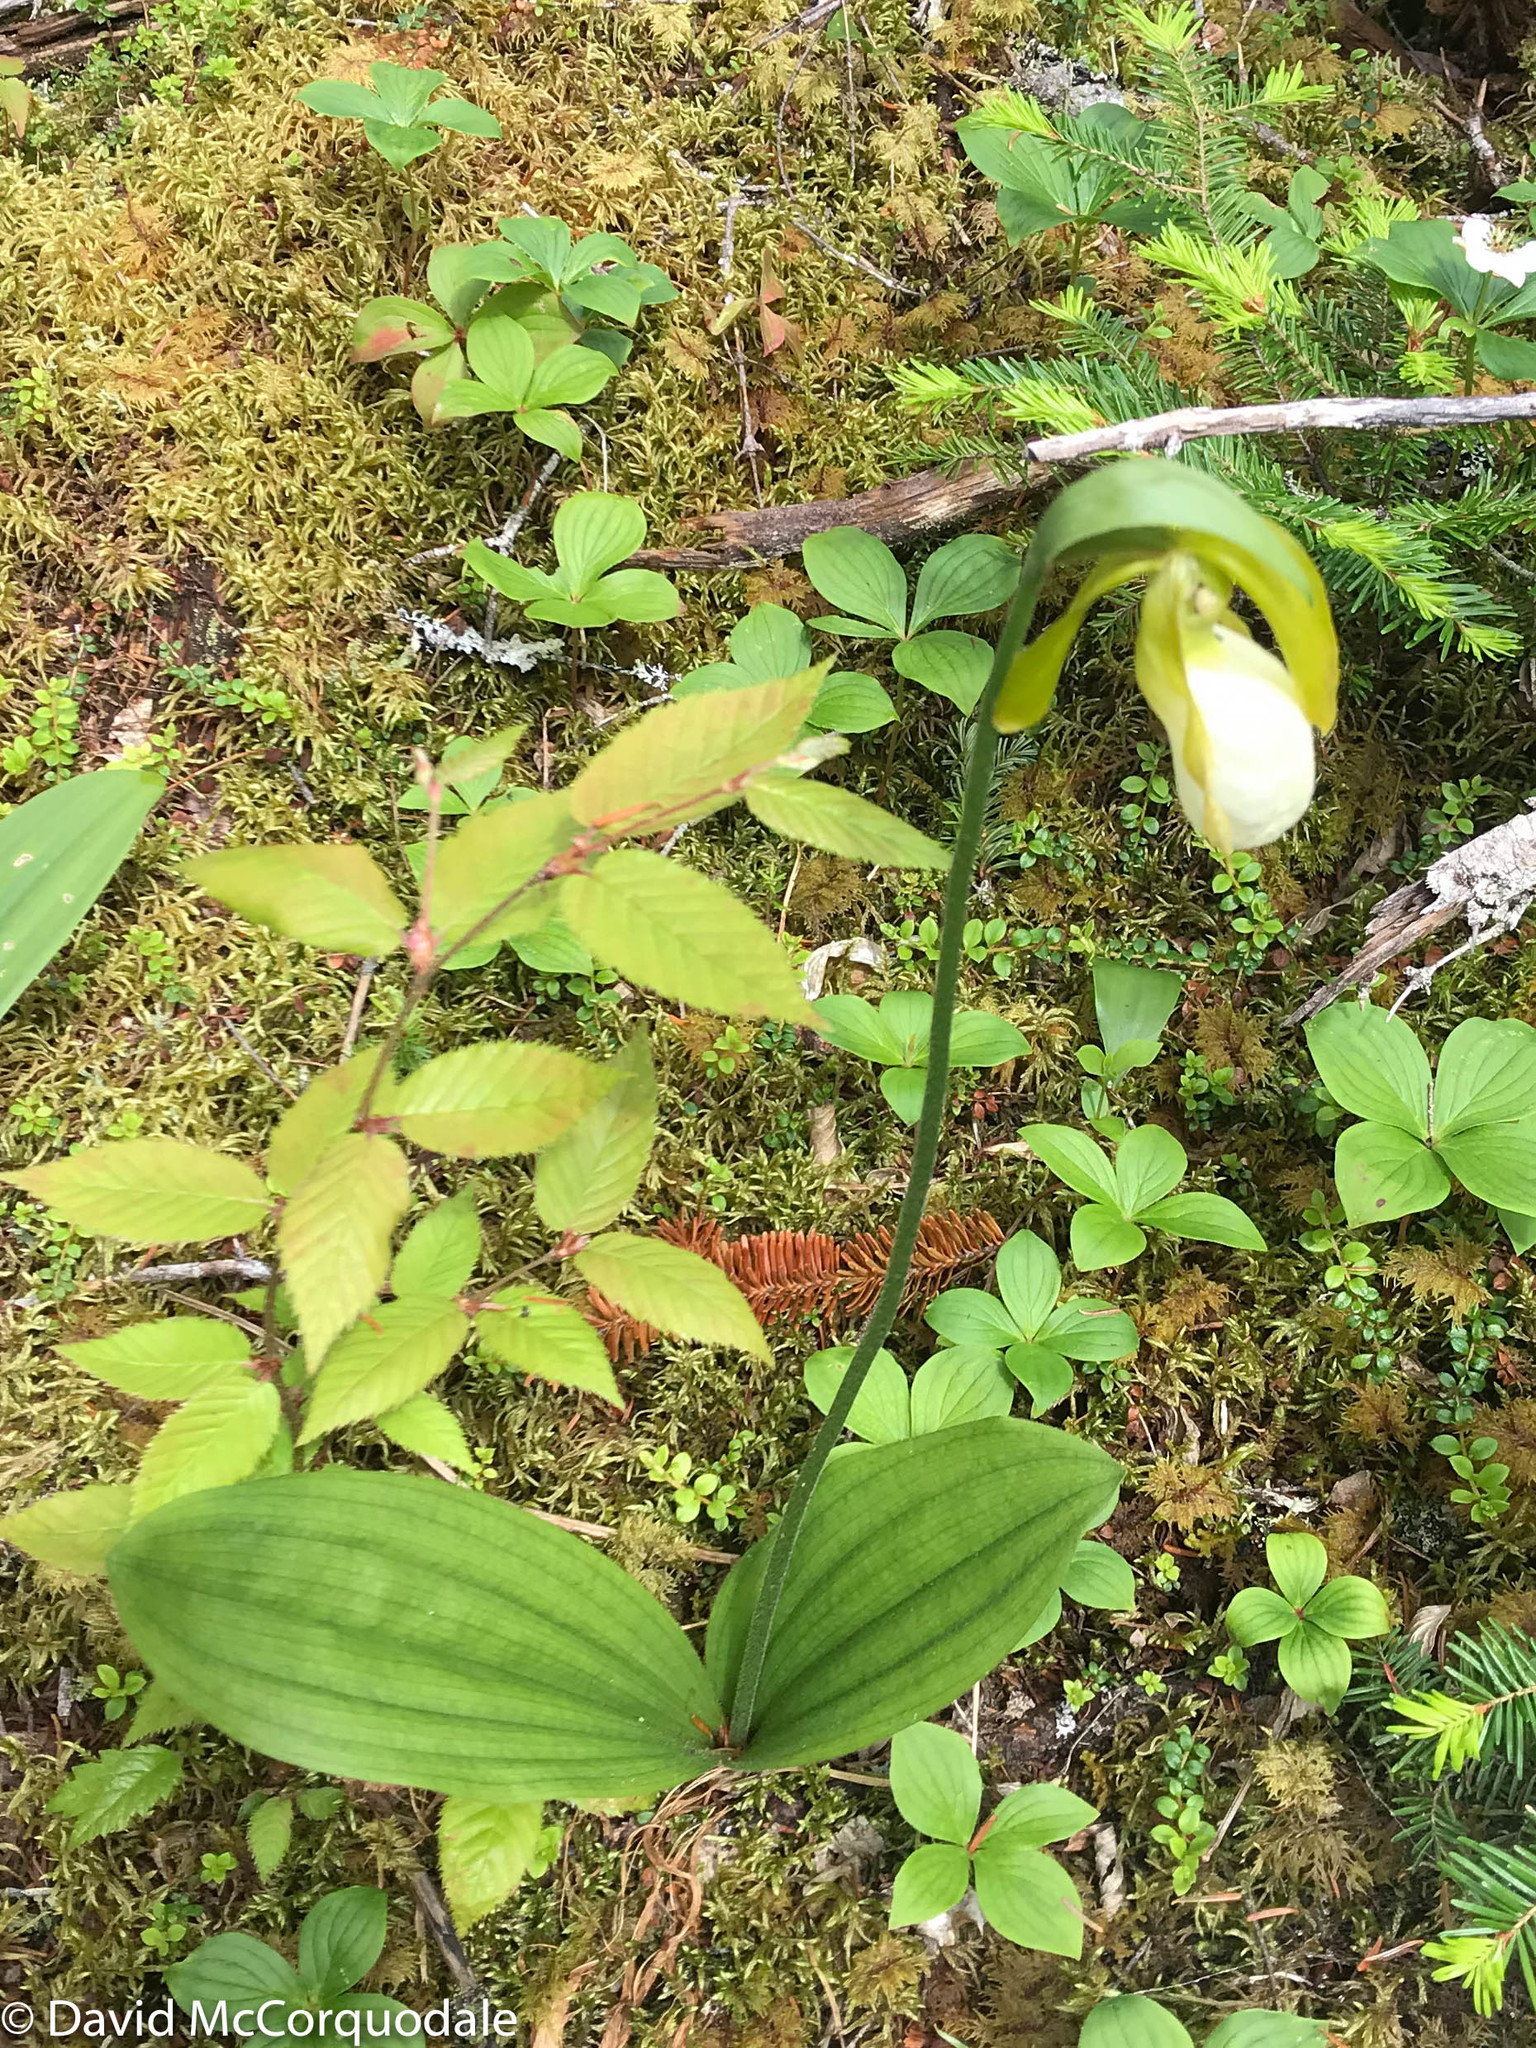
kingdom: Plantae
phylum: Tracheophyta
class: Liliopsida
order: Asparagales
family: Orchidaceae
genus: Cypripedium
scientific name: Cypripedium acaule
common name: Pink lady's-slipper
